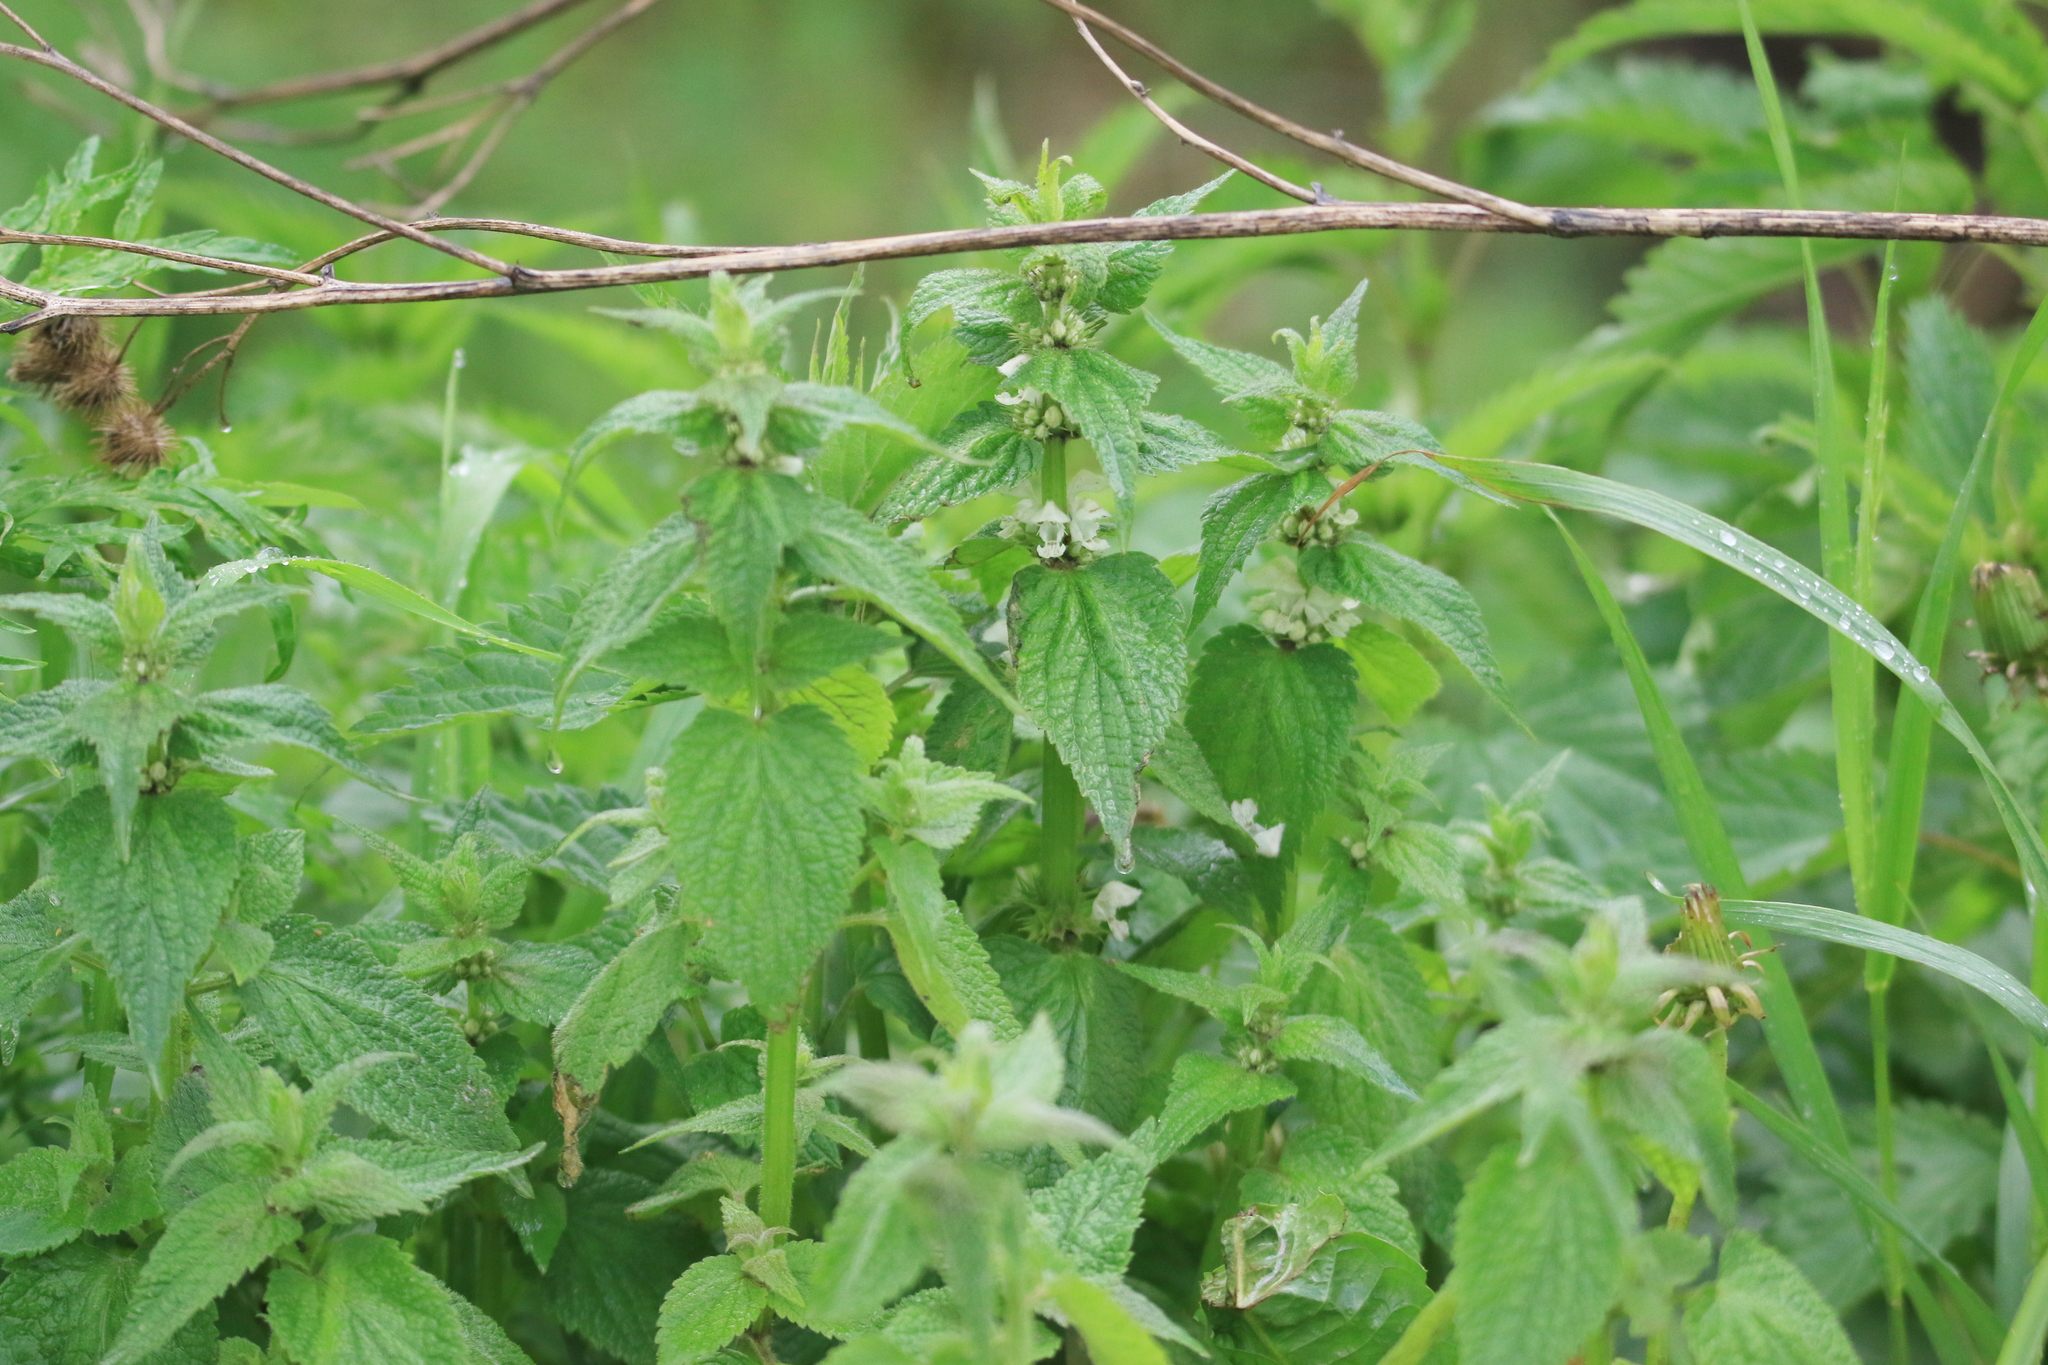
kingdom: Plantae
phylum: Tracheophyta
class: Magnoliopsida
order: Lamiales
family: Lamiaceae
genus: Lamium
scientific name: Lamium album
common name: White dead-nettle
